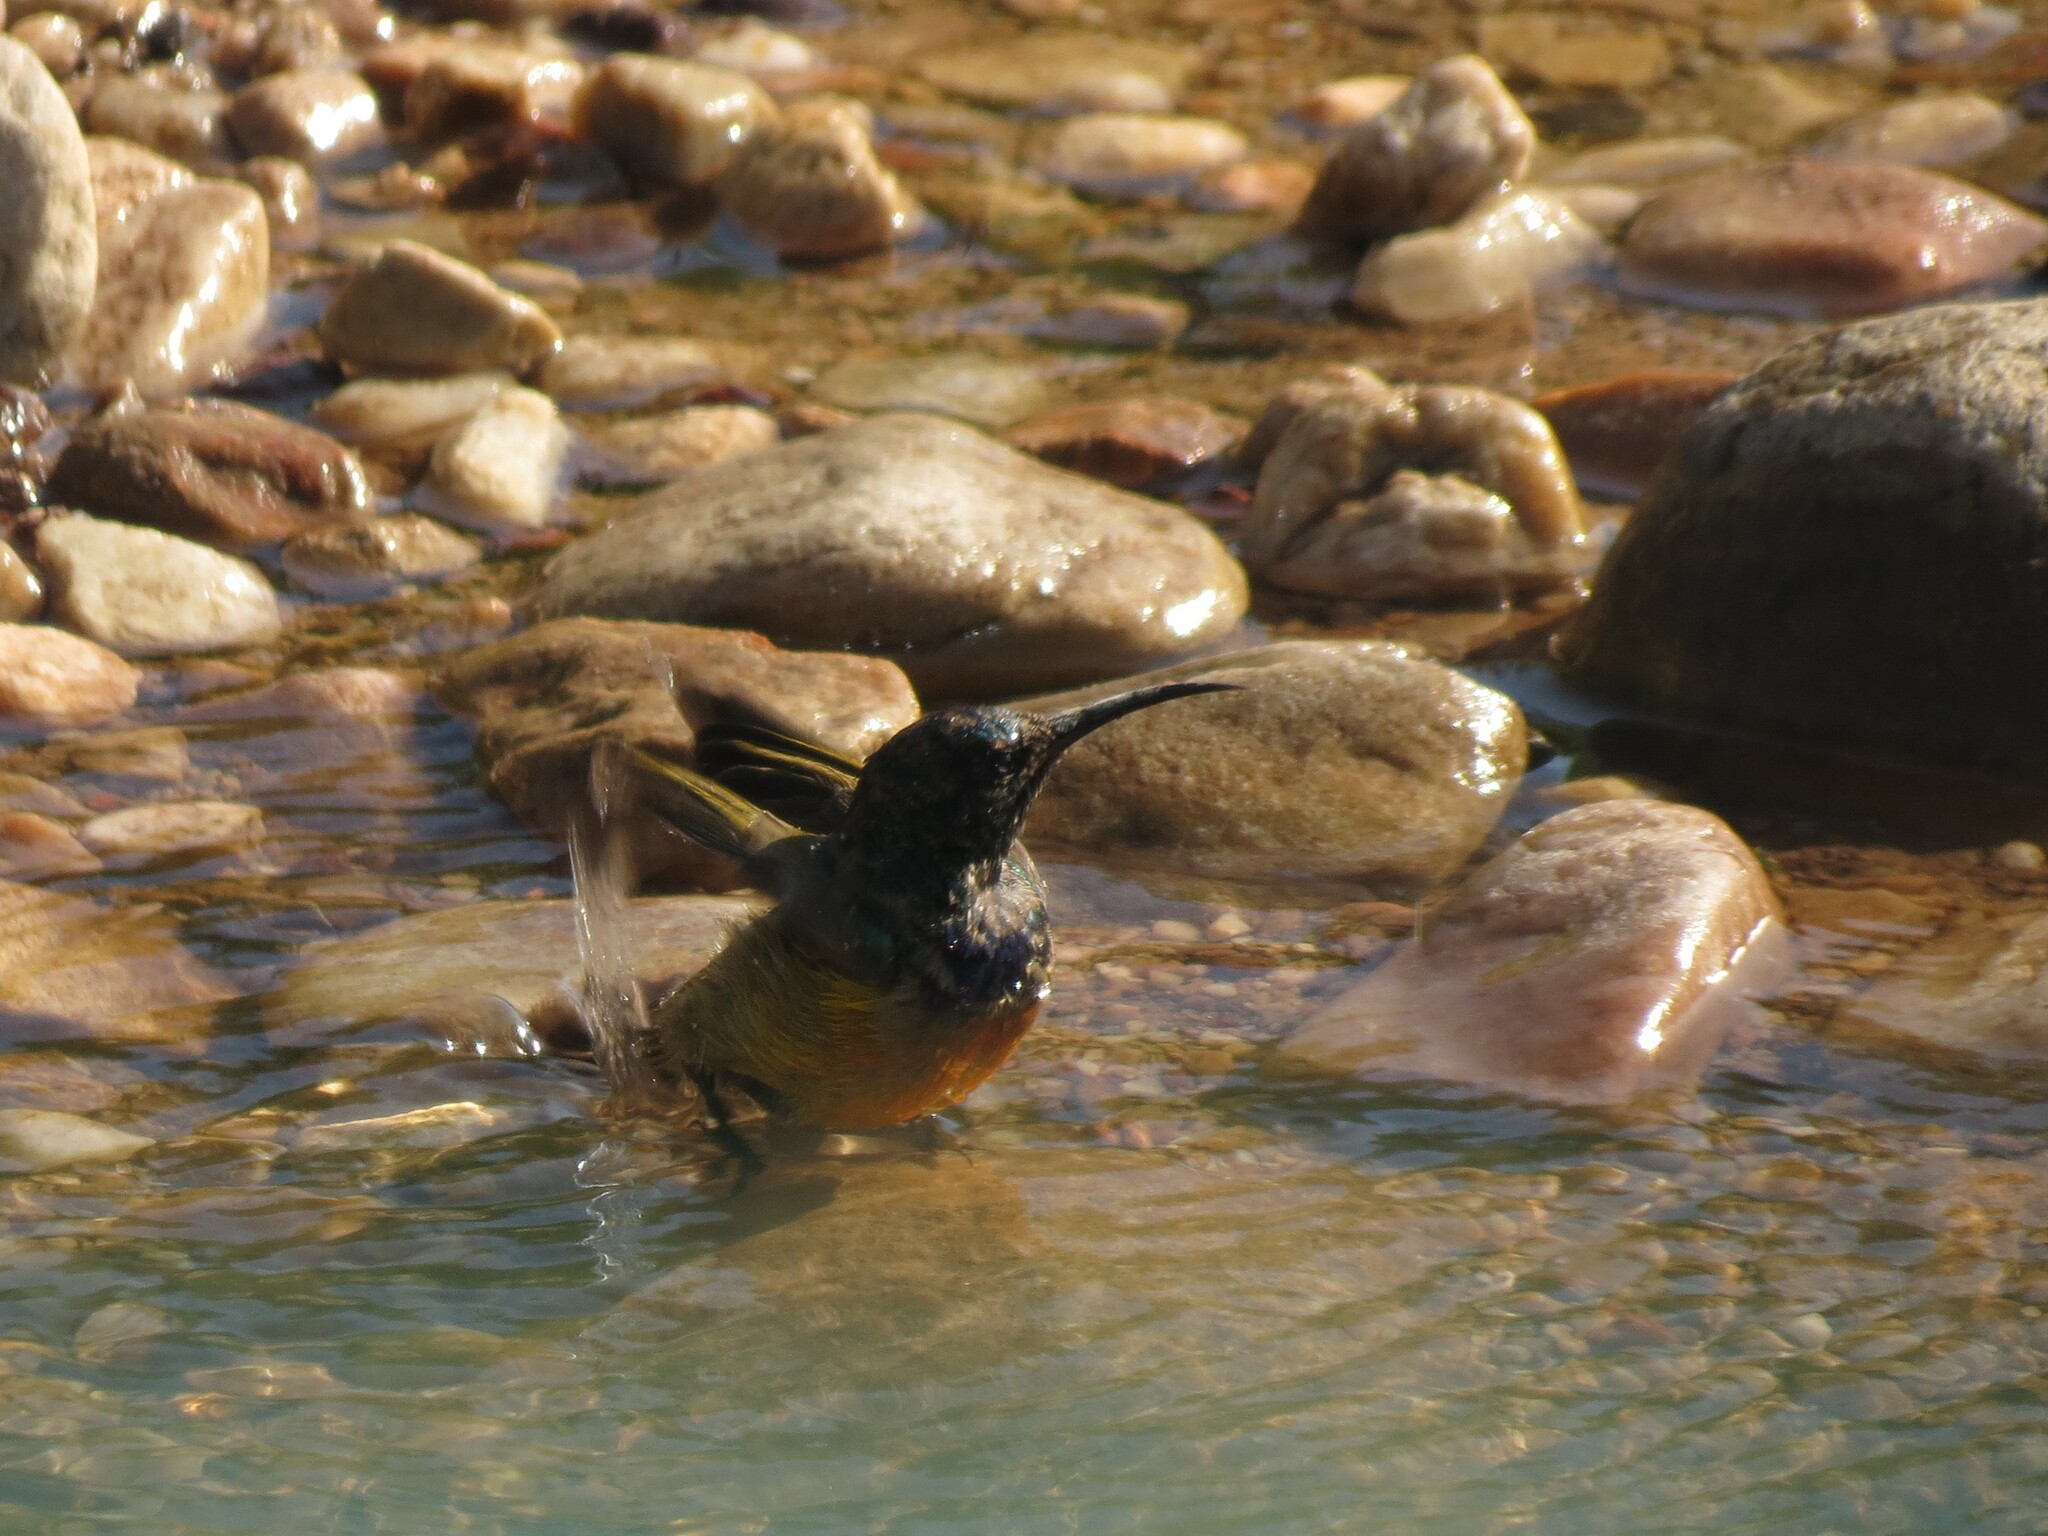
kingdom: Animalia
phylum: Chordata
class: Aves
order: Passeriformes
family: Nectariniidae
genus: Anthobaphes
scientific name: Anthobaphes violacea
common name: Orange-breasted sunbird
